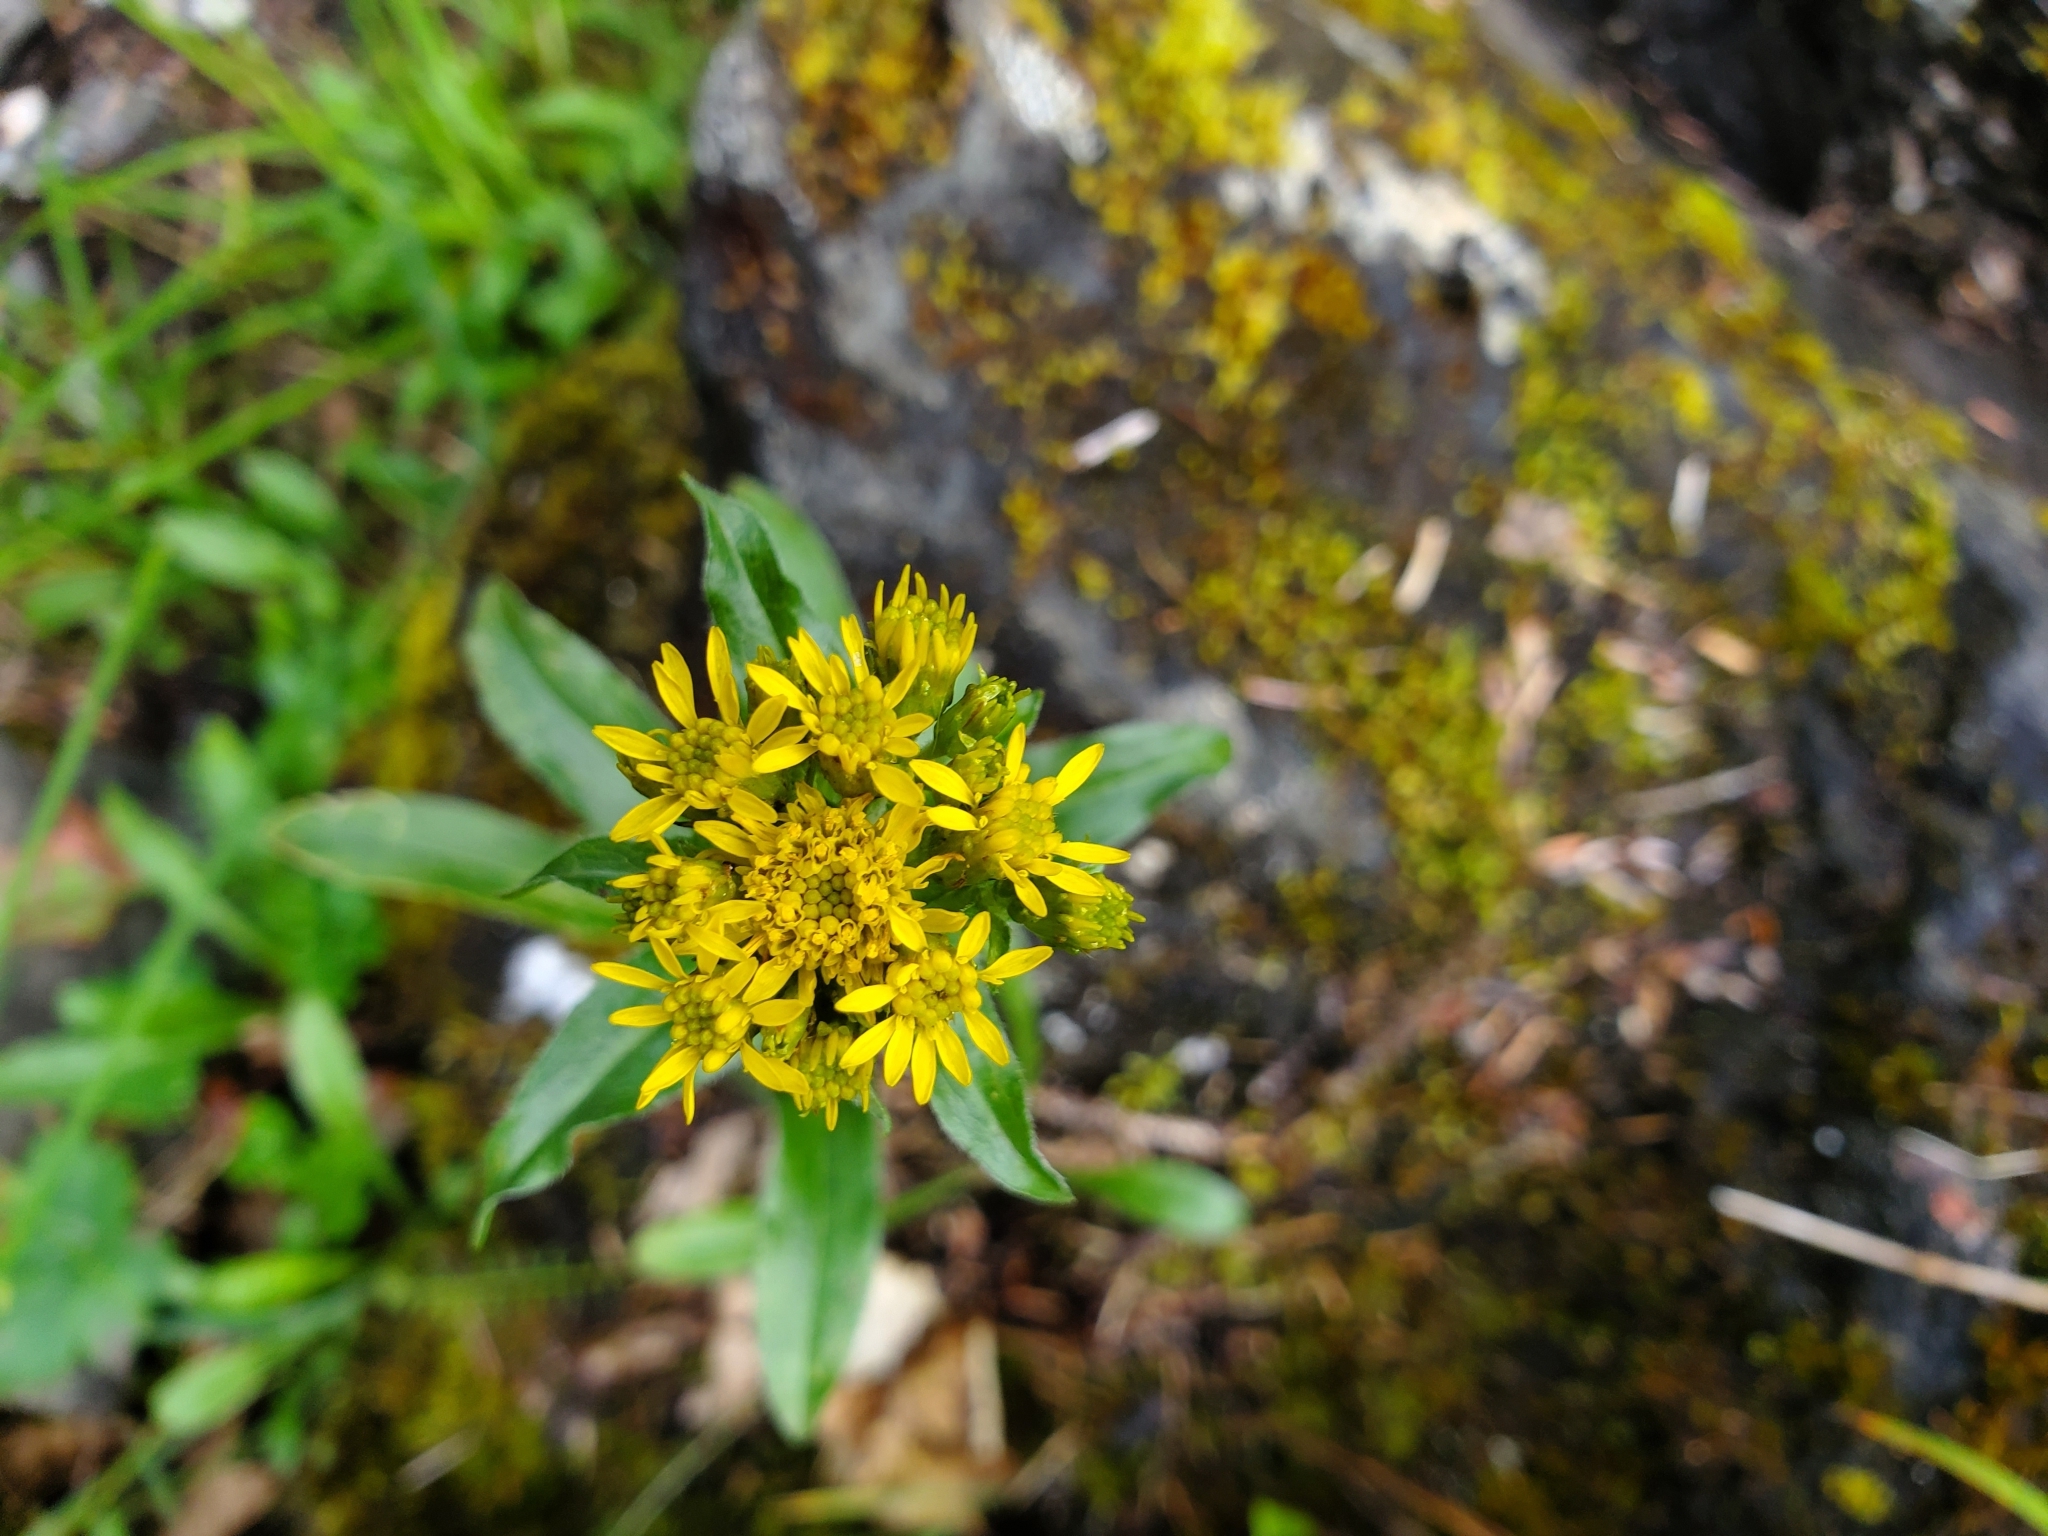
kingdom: Plantae
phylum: Tracheophyta
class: Magnoliopsida
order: Asterales
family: Asteraceae
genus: Solidago
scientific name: Solidago multiradiata
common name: Northern goldenrod
